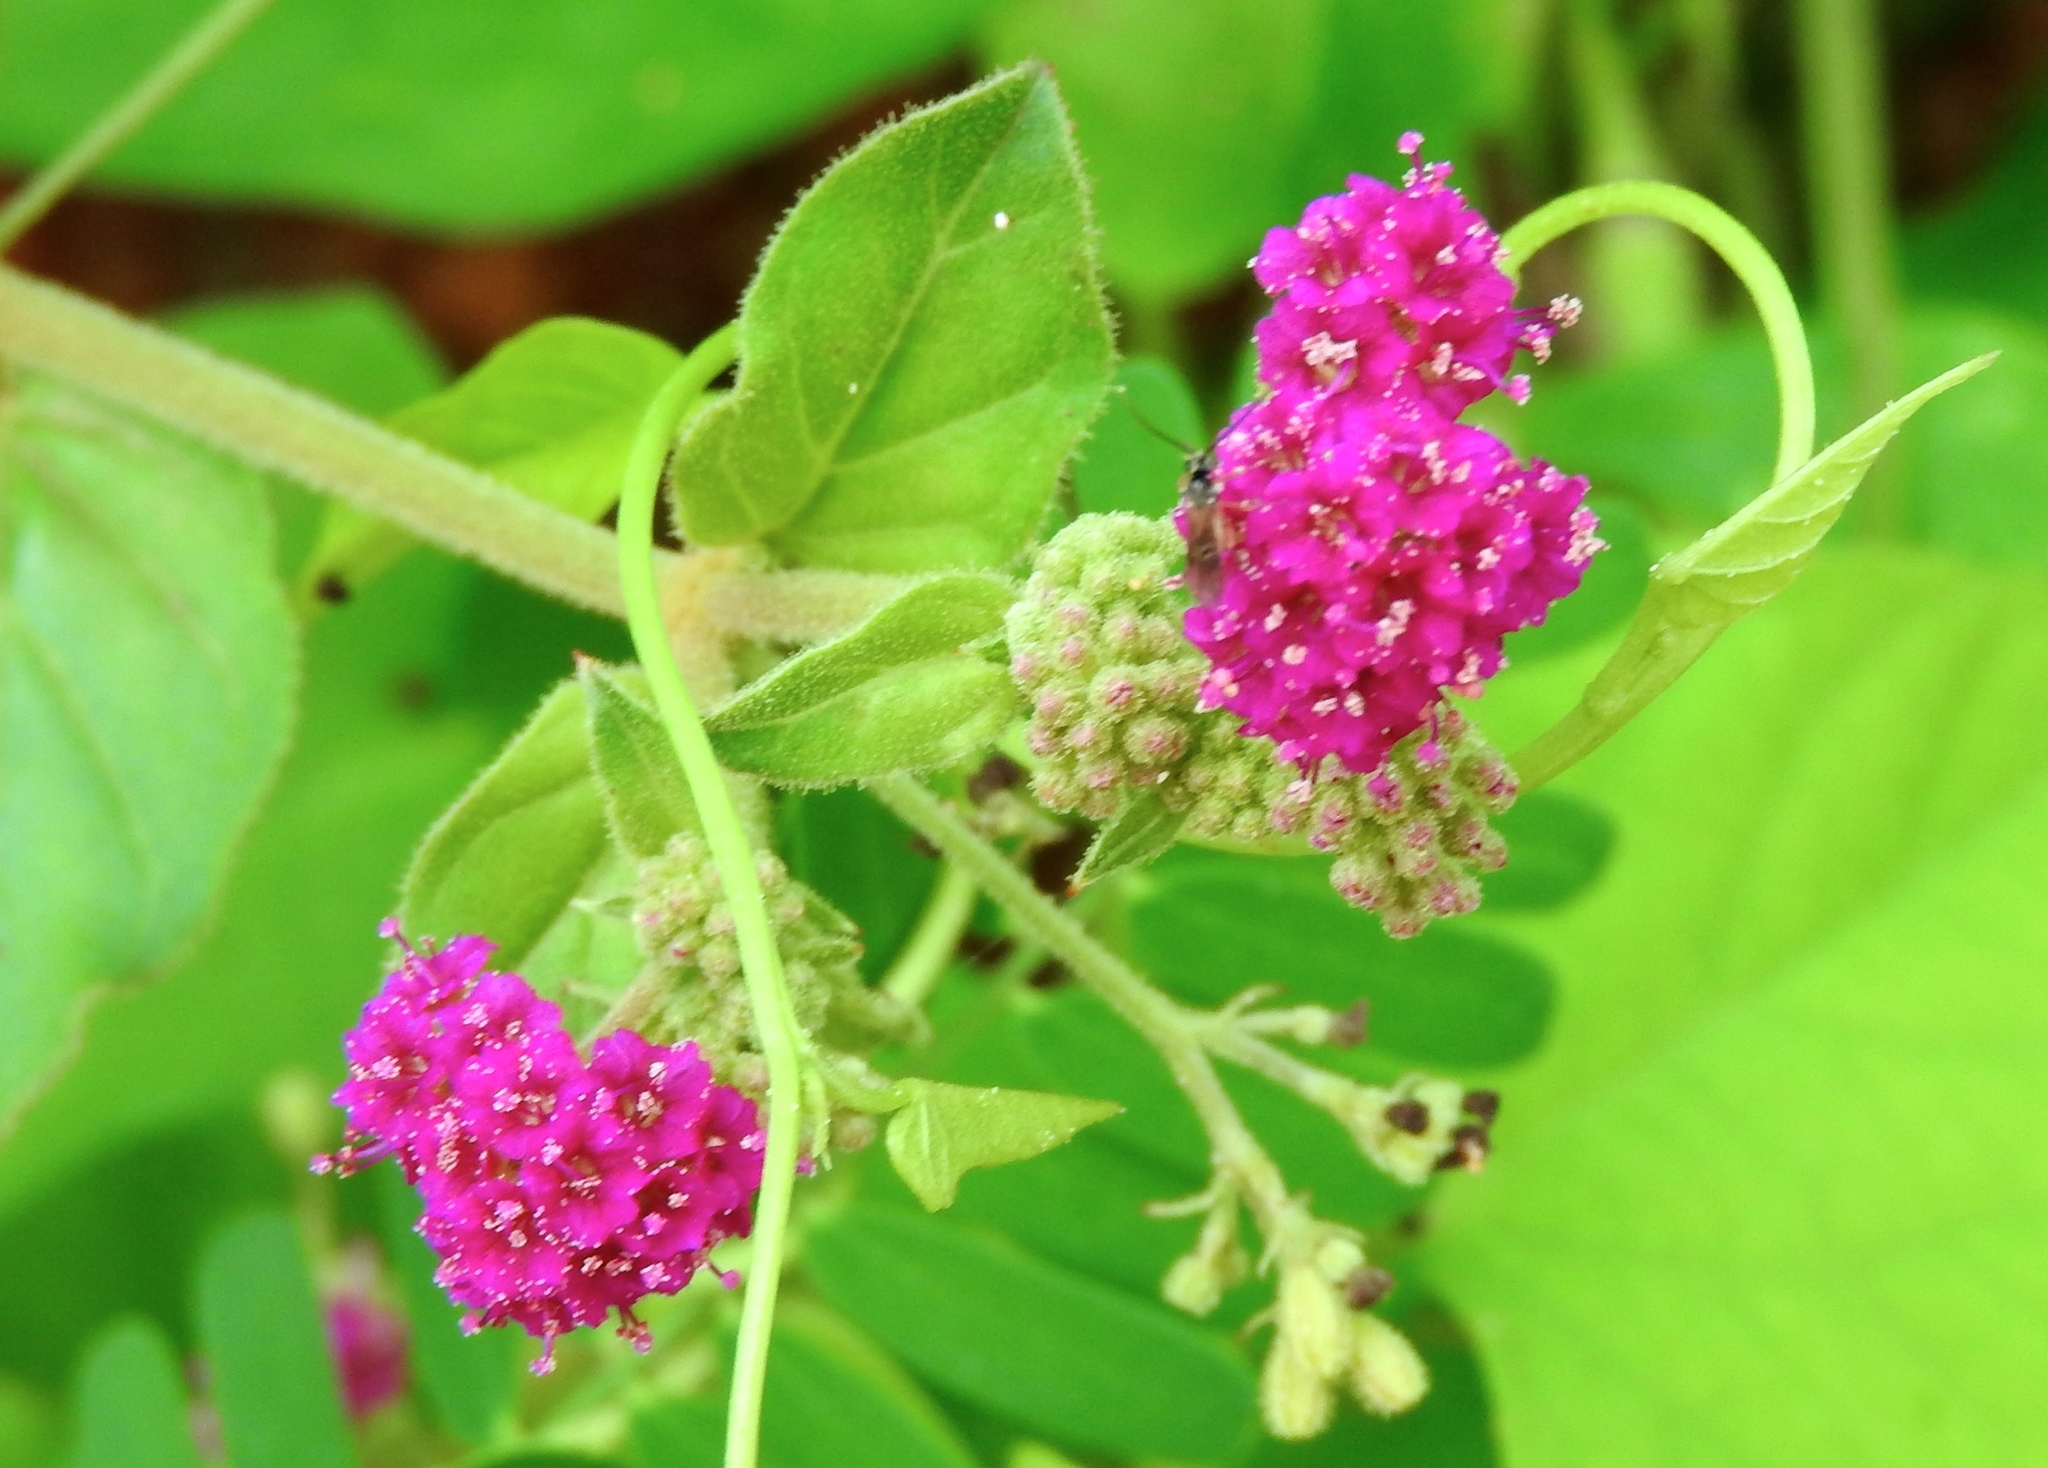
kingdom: Plantae
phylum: Tracheophyta
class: Magnoliopsida
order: Caryophyllales
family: Nyctaginaceae
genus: Boerhavia
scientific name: Boerhavia coccinea
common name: Scarlet spiderling
